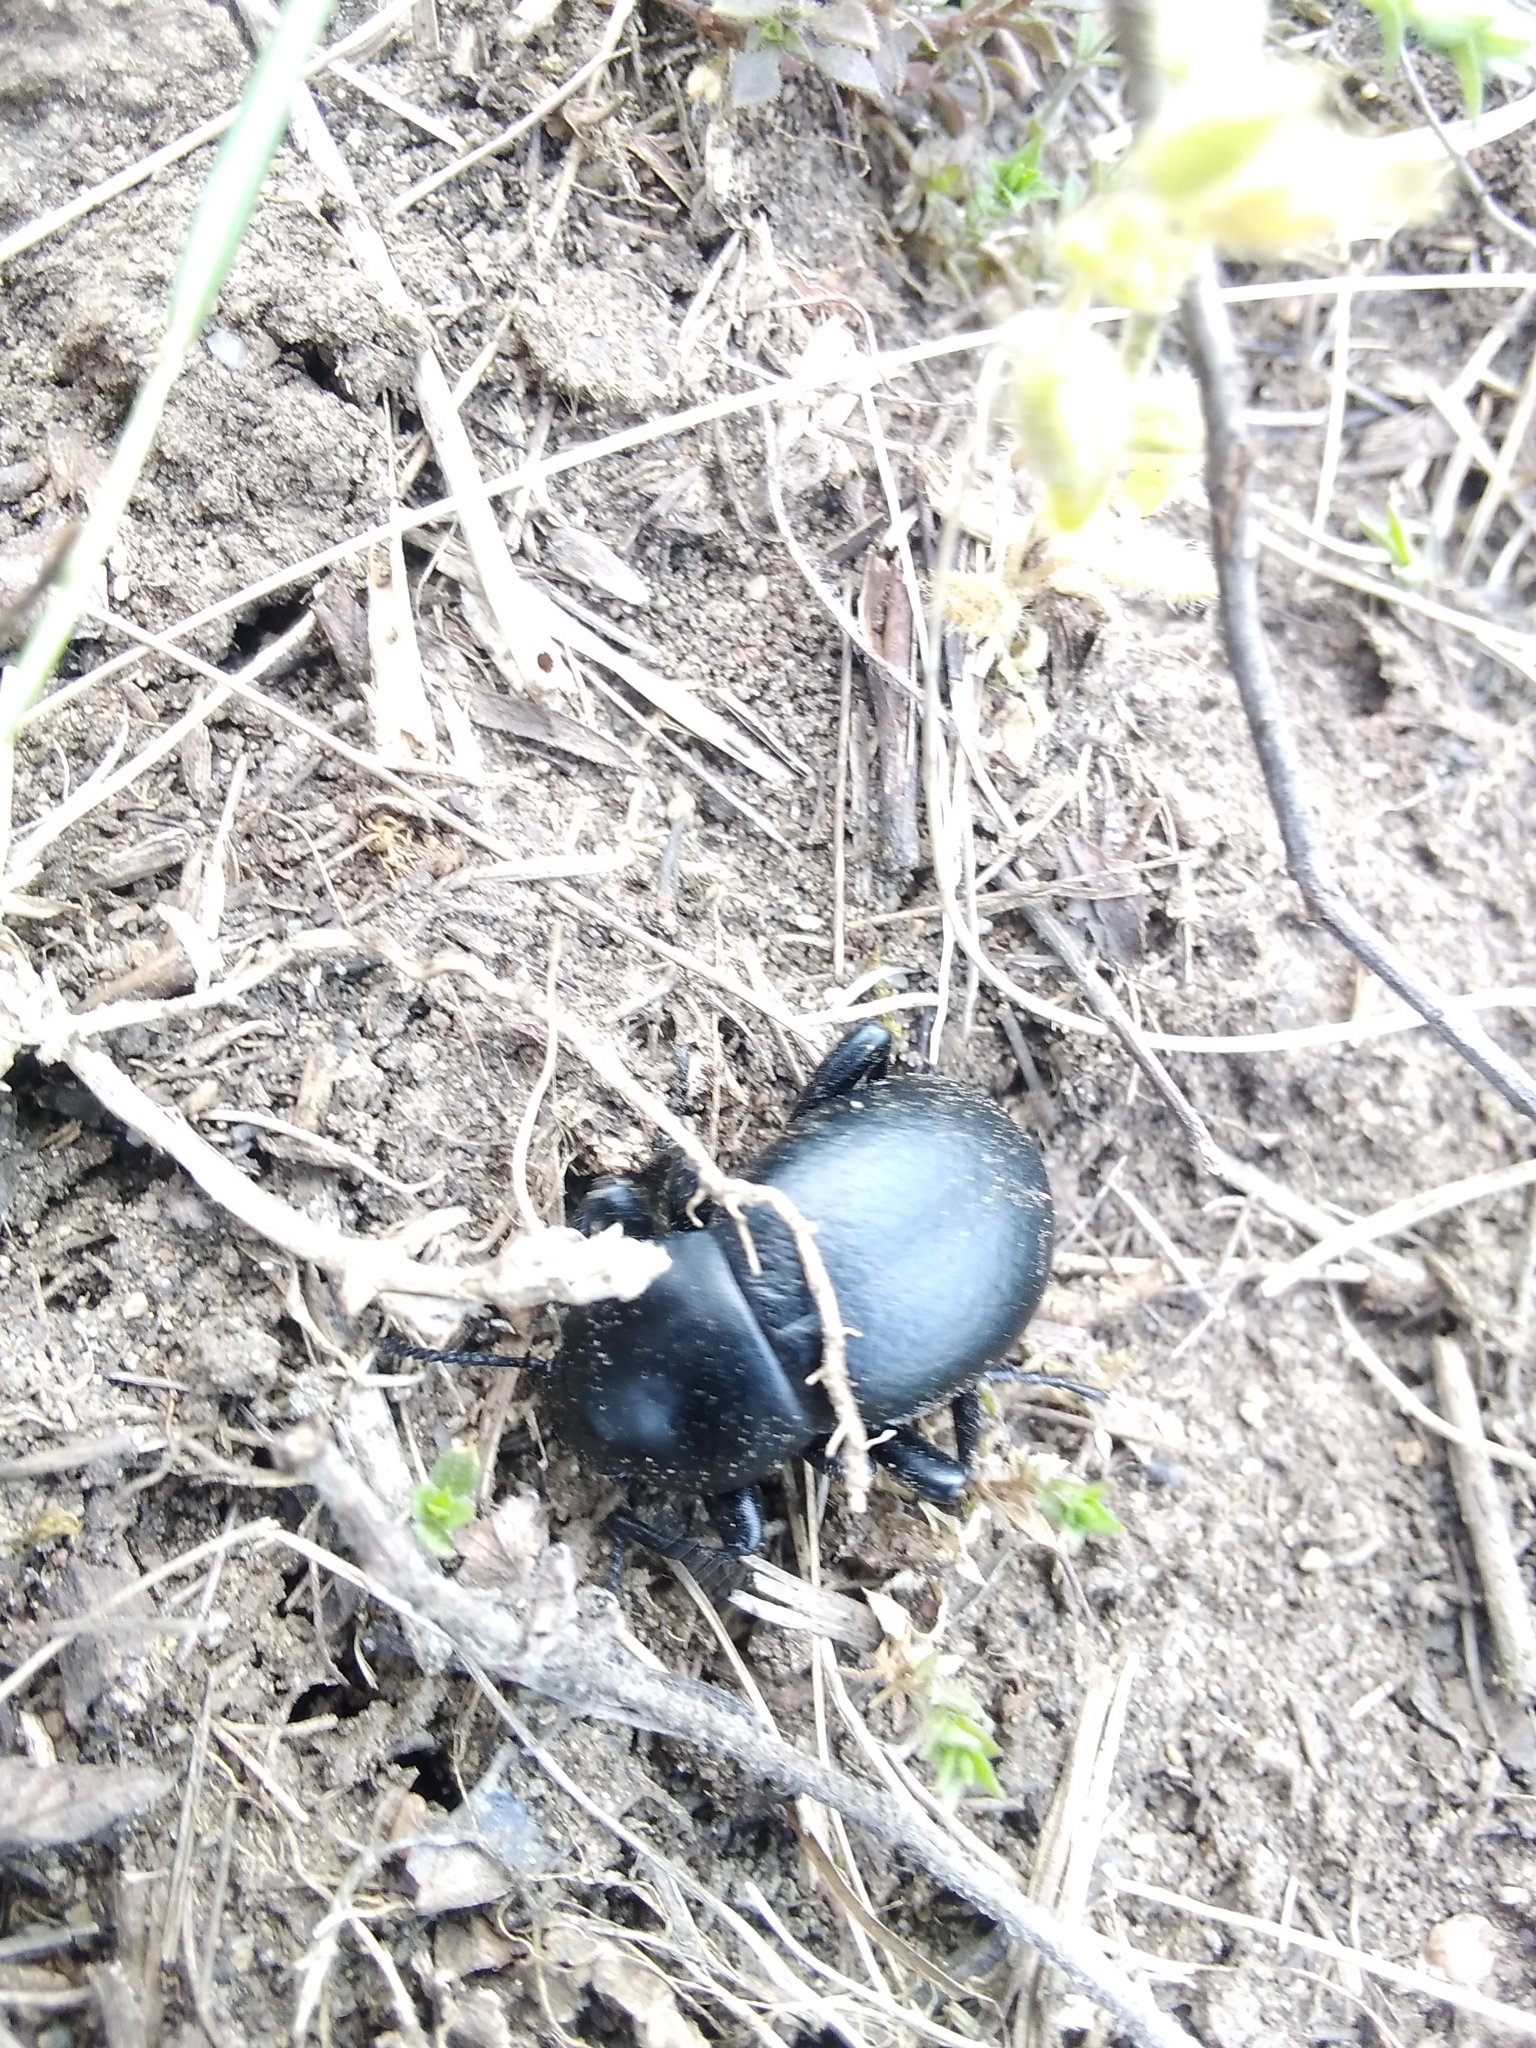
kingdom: Animalia
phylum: Arthropoda
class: Insecta
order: Coleoptera
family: Tenebrionidae
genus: Gnaptor
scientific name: Gnaptor spinimanus
